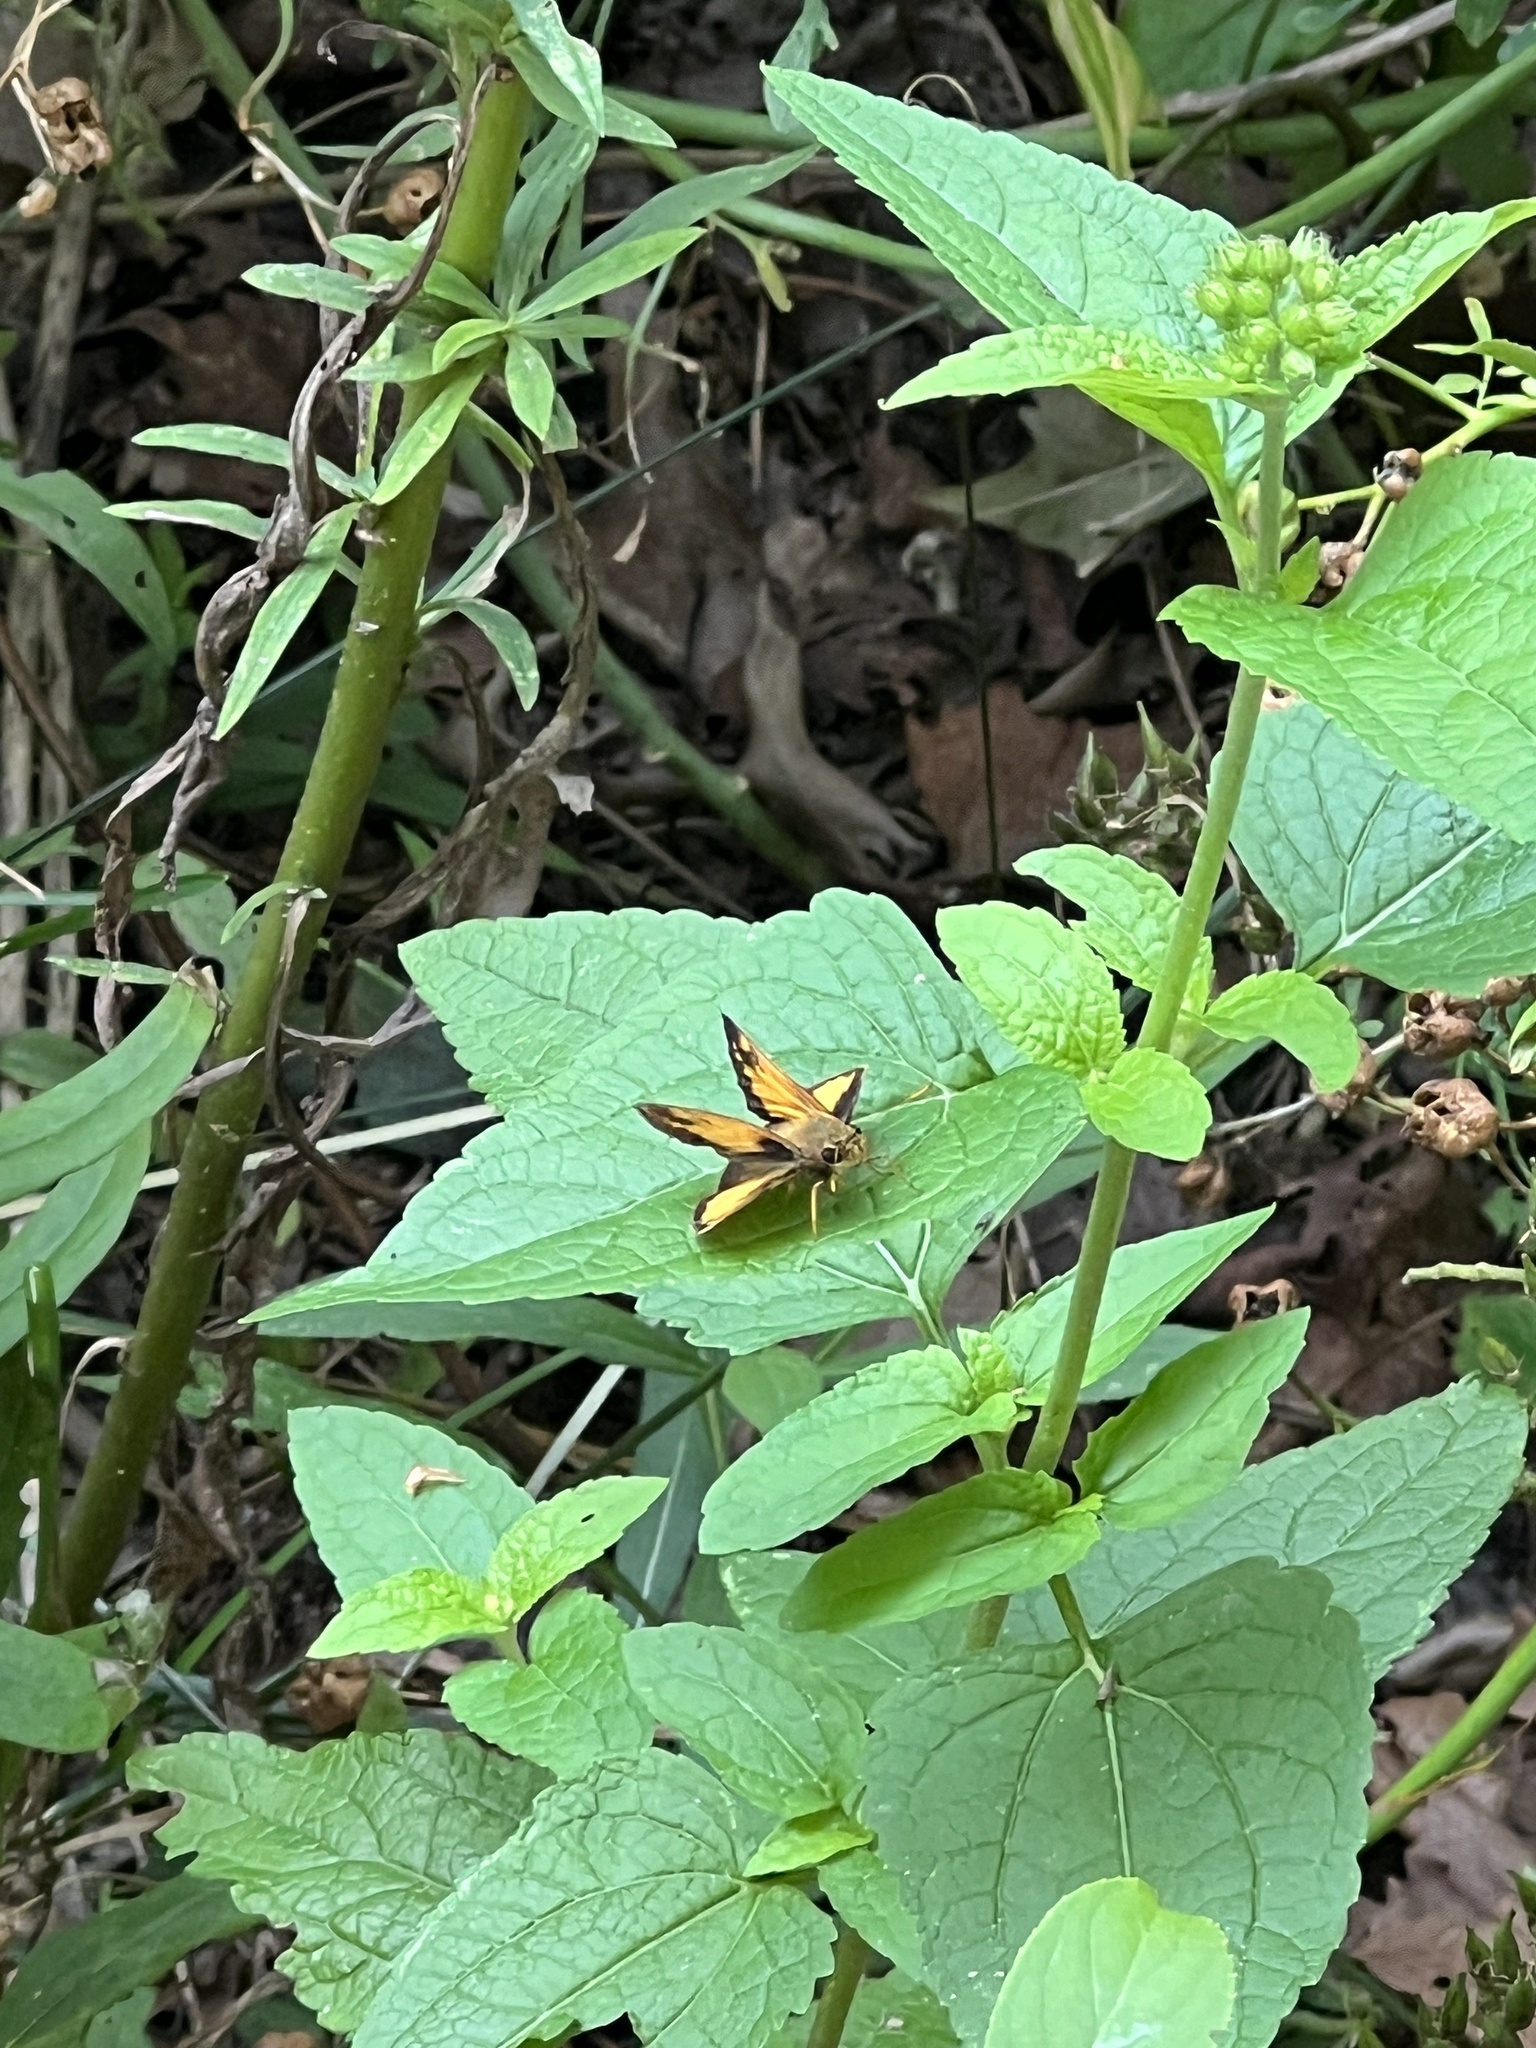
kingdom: Animalia
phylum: Arthropoda
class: Insecta
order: Lepidoptera
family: Hesperiidae
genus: Lon
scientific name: Lon zabulon
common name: Zabulon skipper
